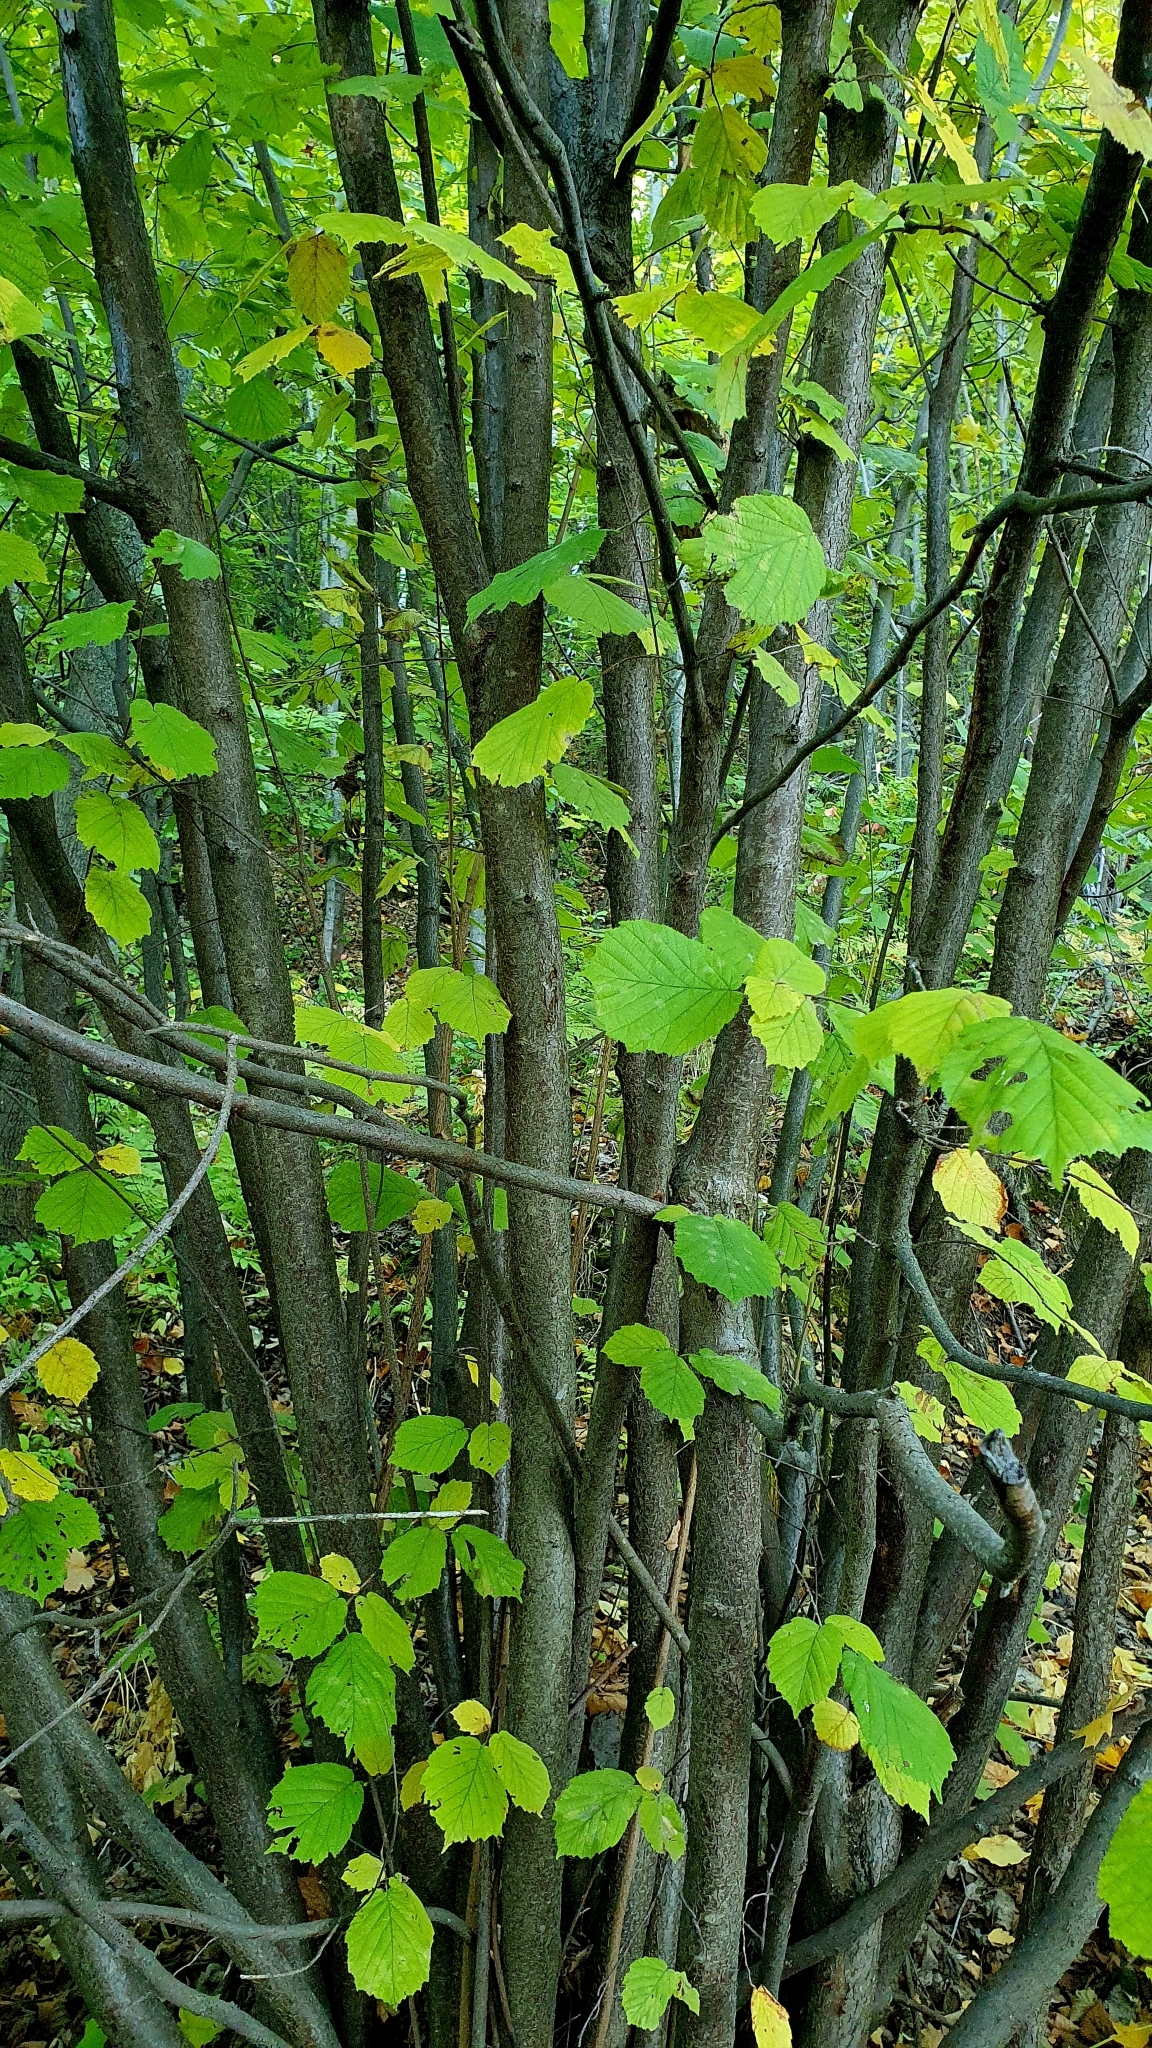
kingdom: Plantae
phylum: Tracheophyta
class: Magnoliopsida
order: Fagales
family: Betulaceae
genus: Corylus
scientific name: Corylus avellana
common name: European hazel
